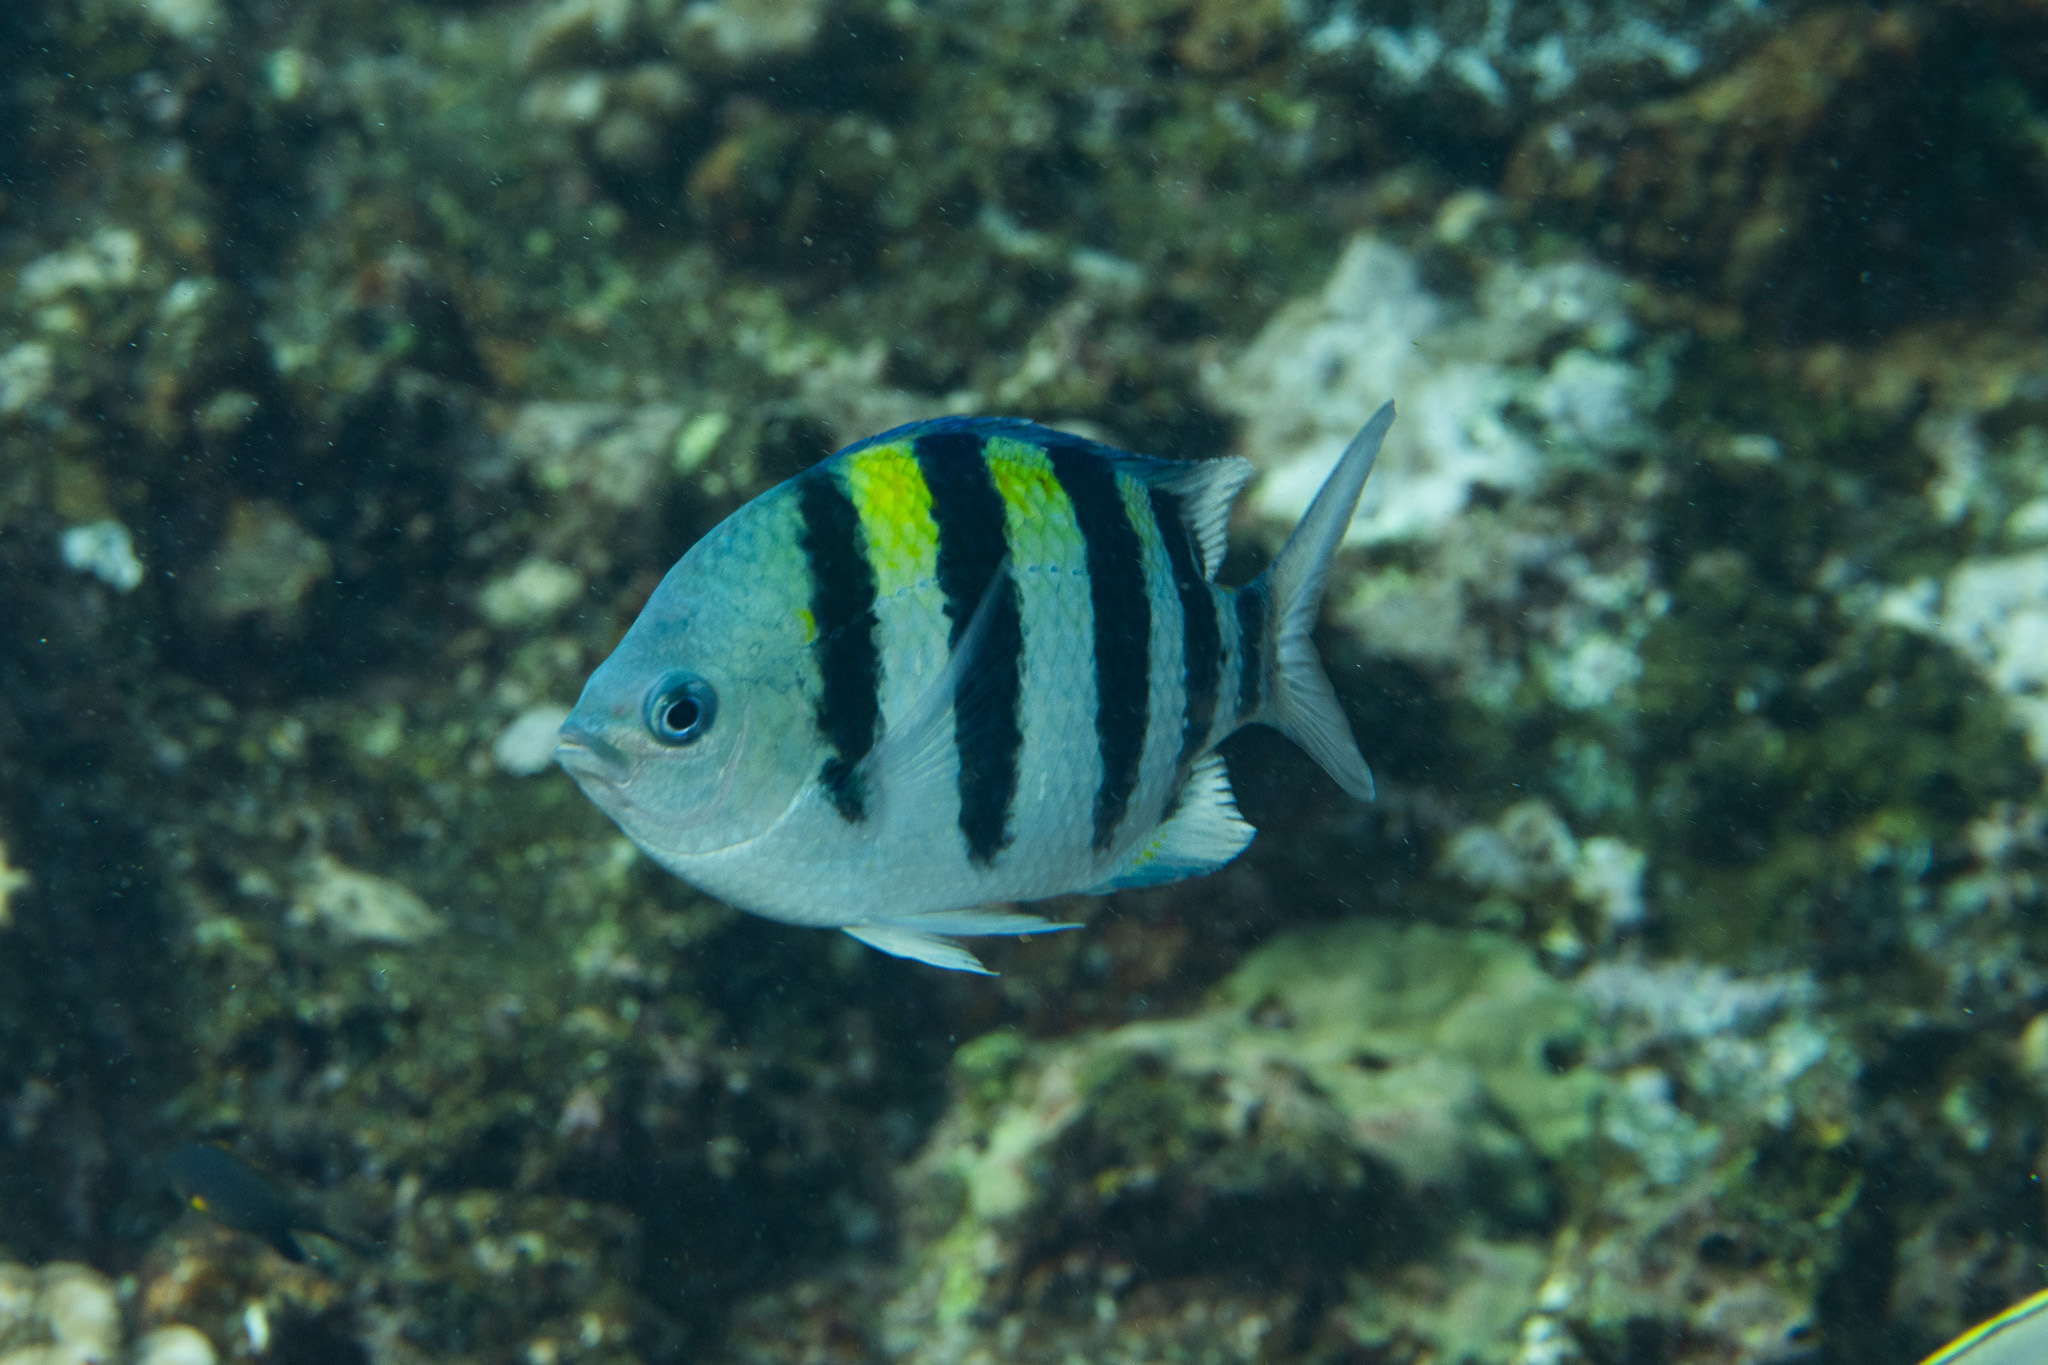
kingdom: Animalia
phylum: Chordata
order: Perciformes
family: Pomacentridae
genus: Abudefduf
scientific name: Abudefduf vaigiensis
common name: Indo-pacific sergeant
